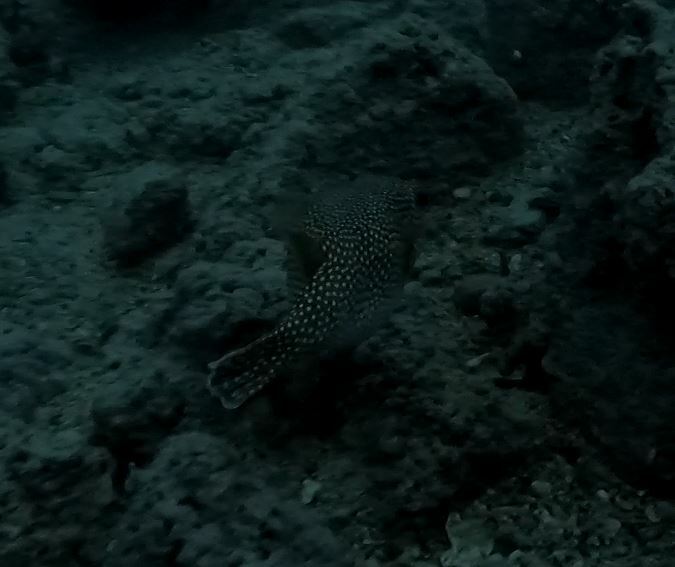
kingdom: Animalia
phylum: Chordata
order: Tetraodontiformes
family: Tetraodontidae
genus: Arothron
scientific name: Arothron meleagris
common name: Guinea-fowl pufferfish
